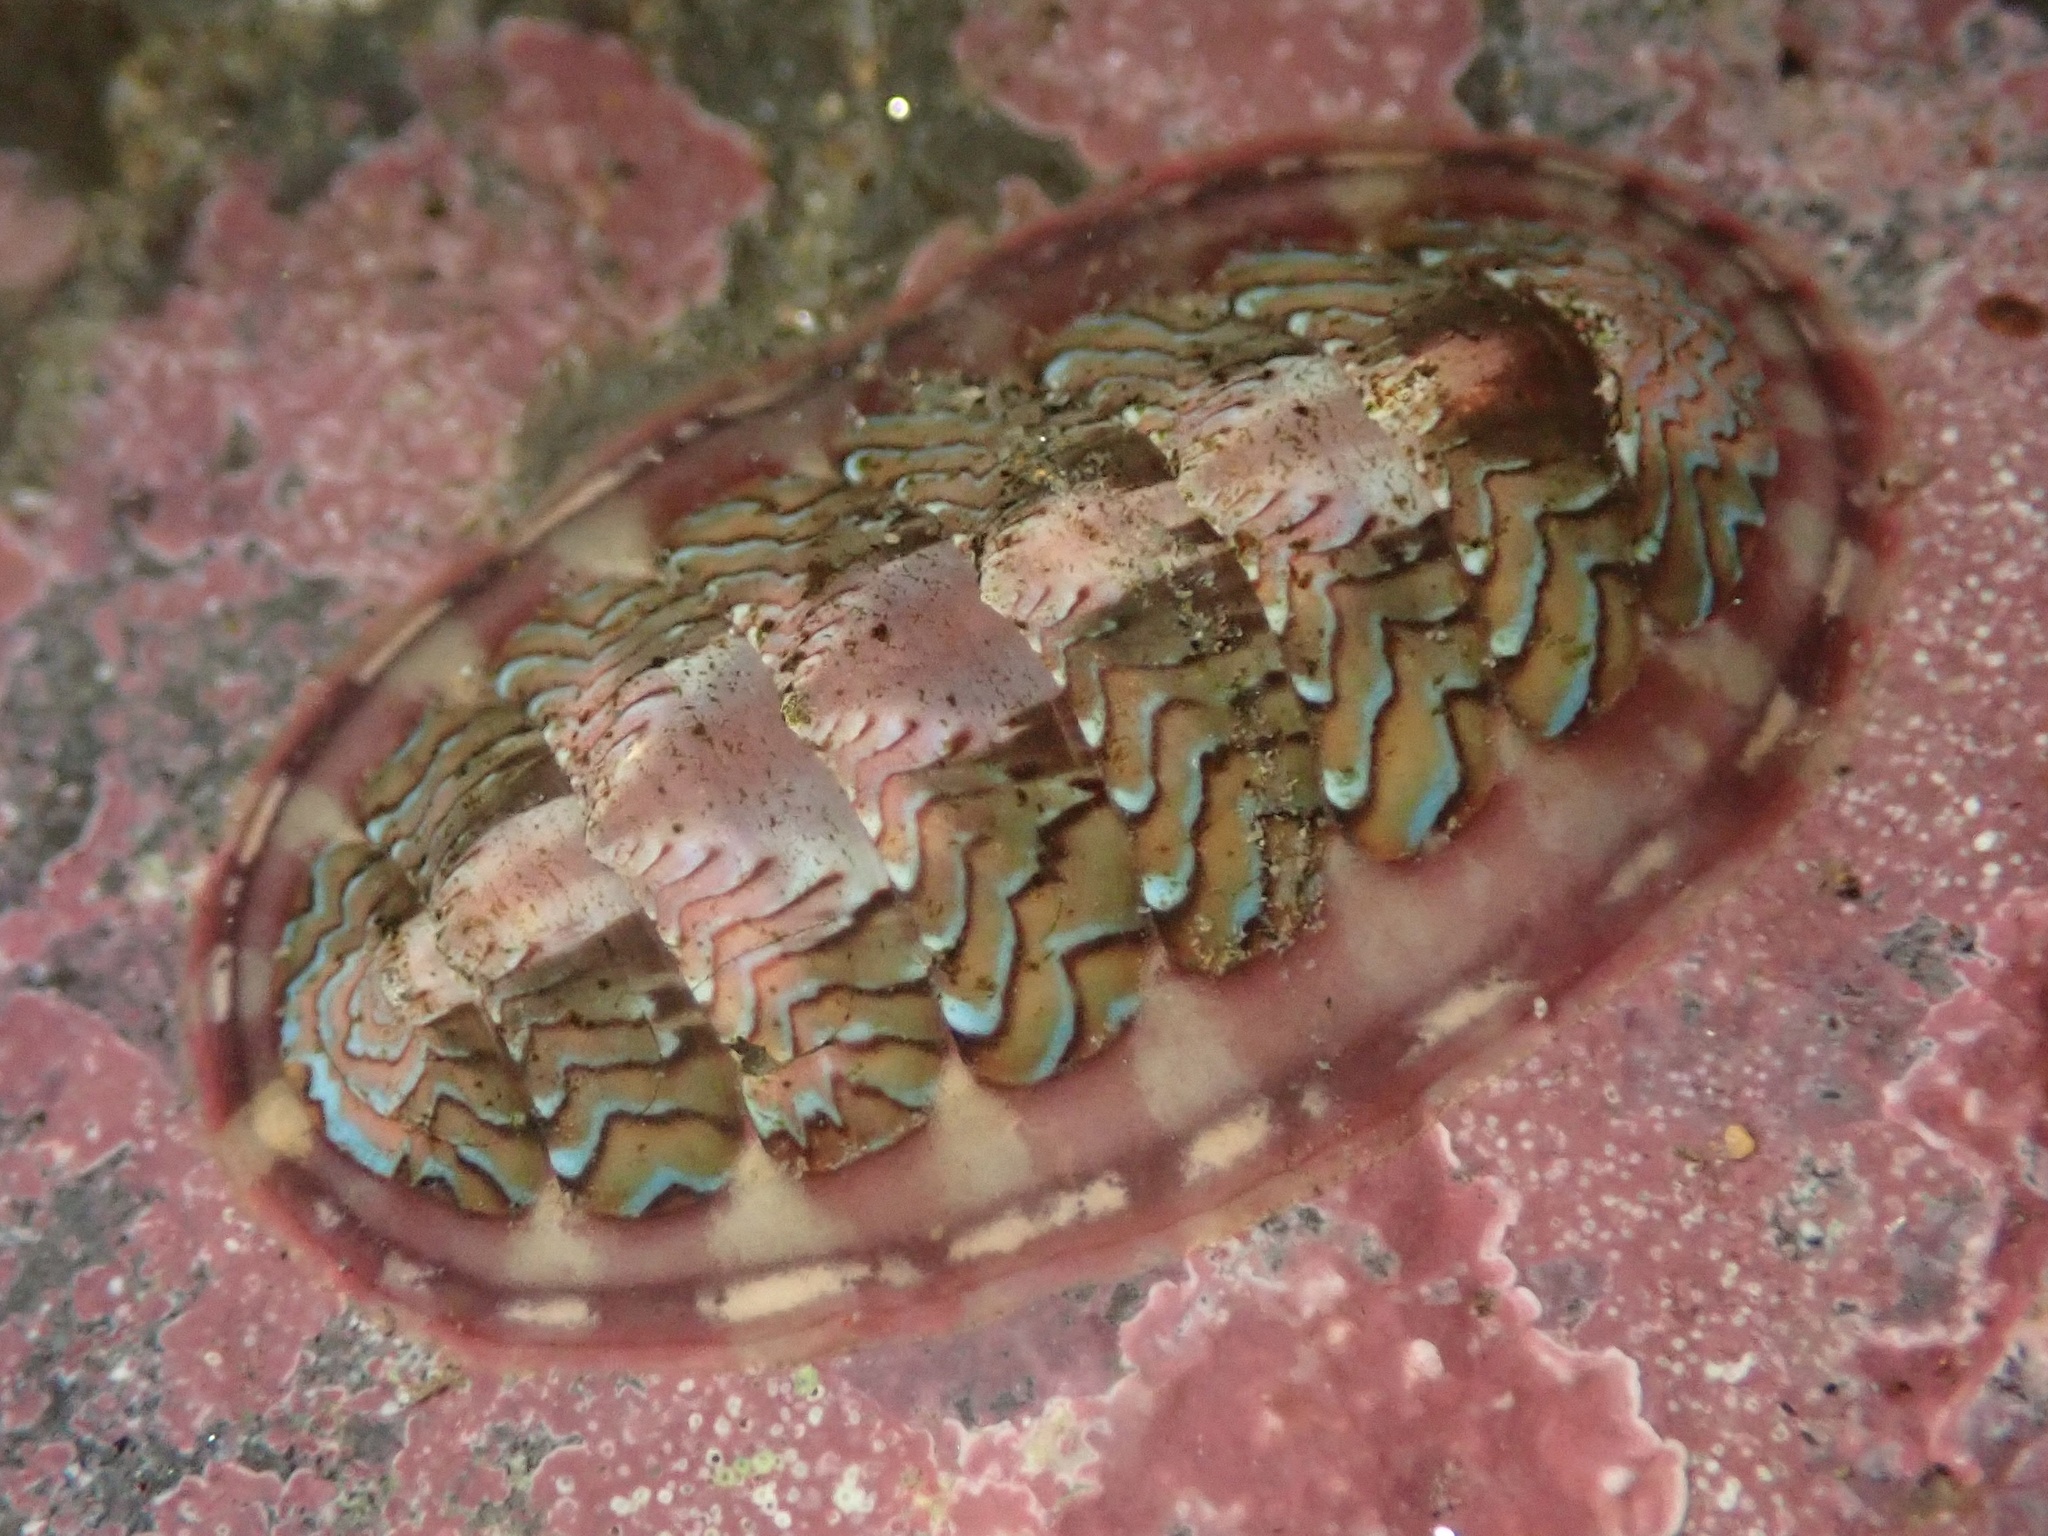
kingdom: Animalia
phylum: Mollusca
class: Polyplacophora
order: Chitonida
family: Tonicellidae
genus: Tonicella
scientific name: Tonicella lokii
